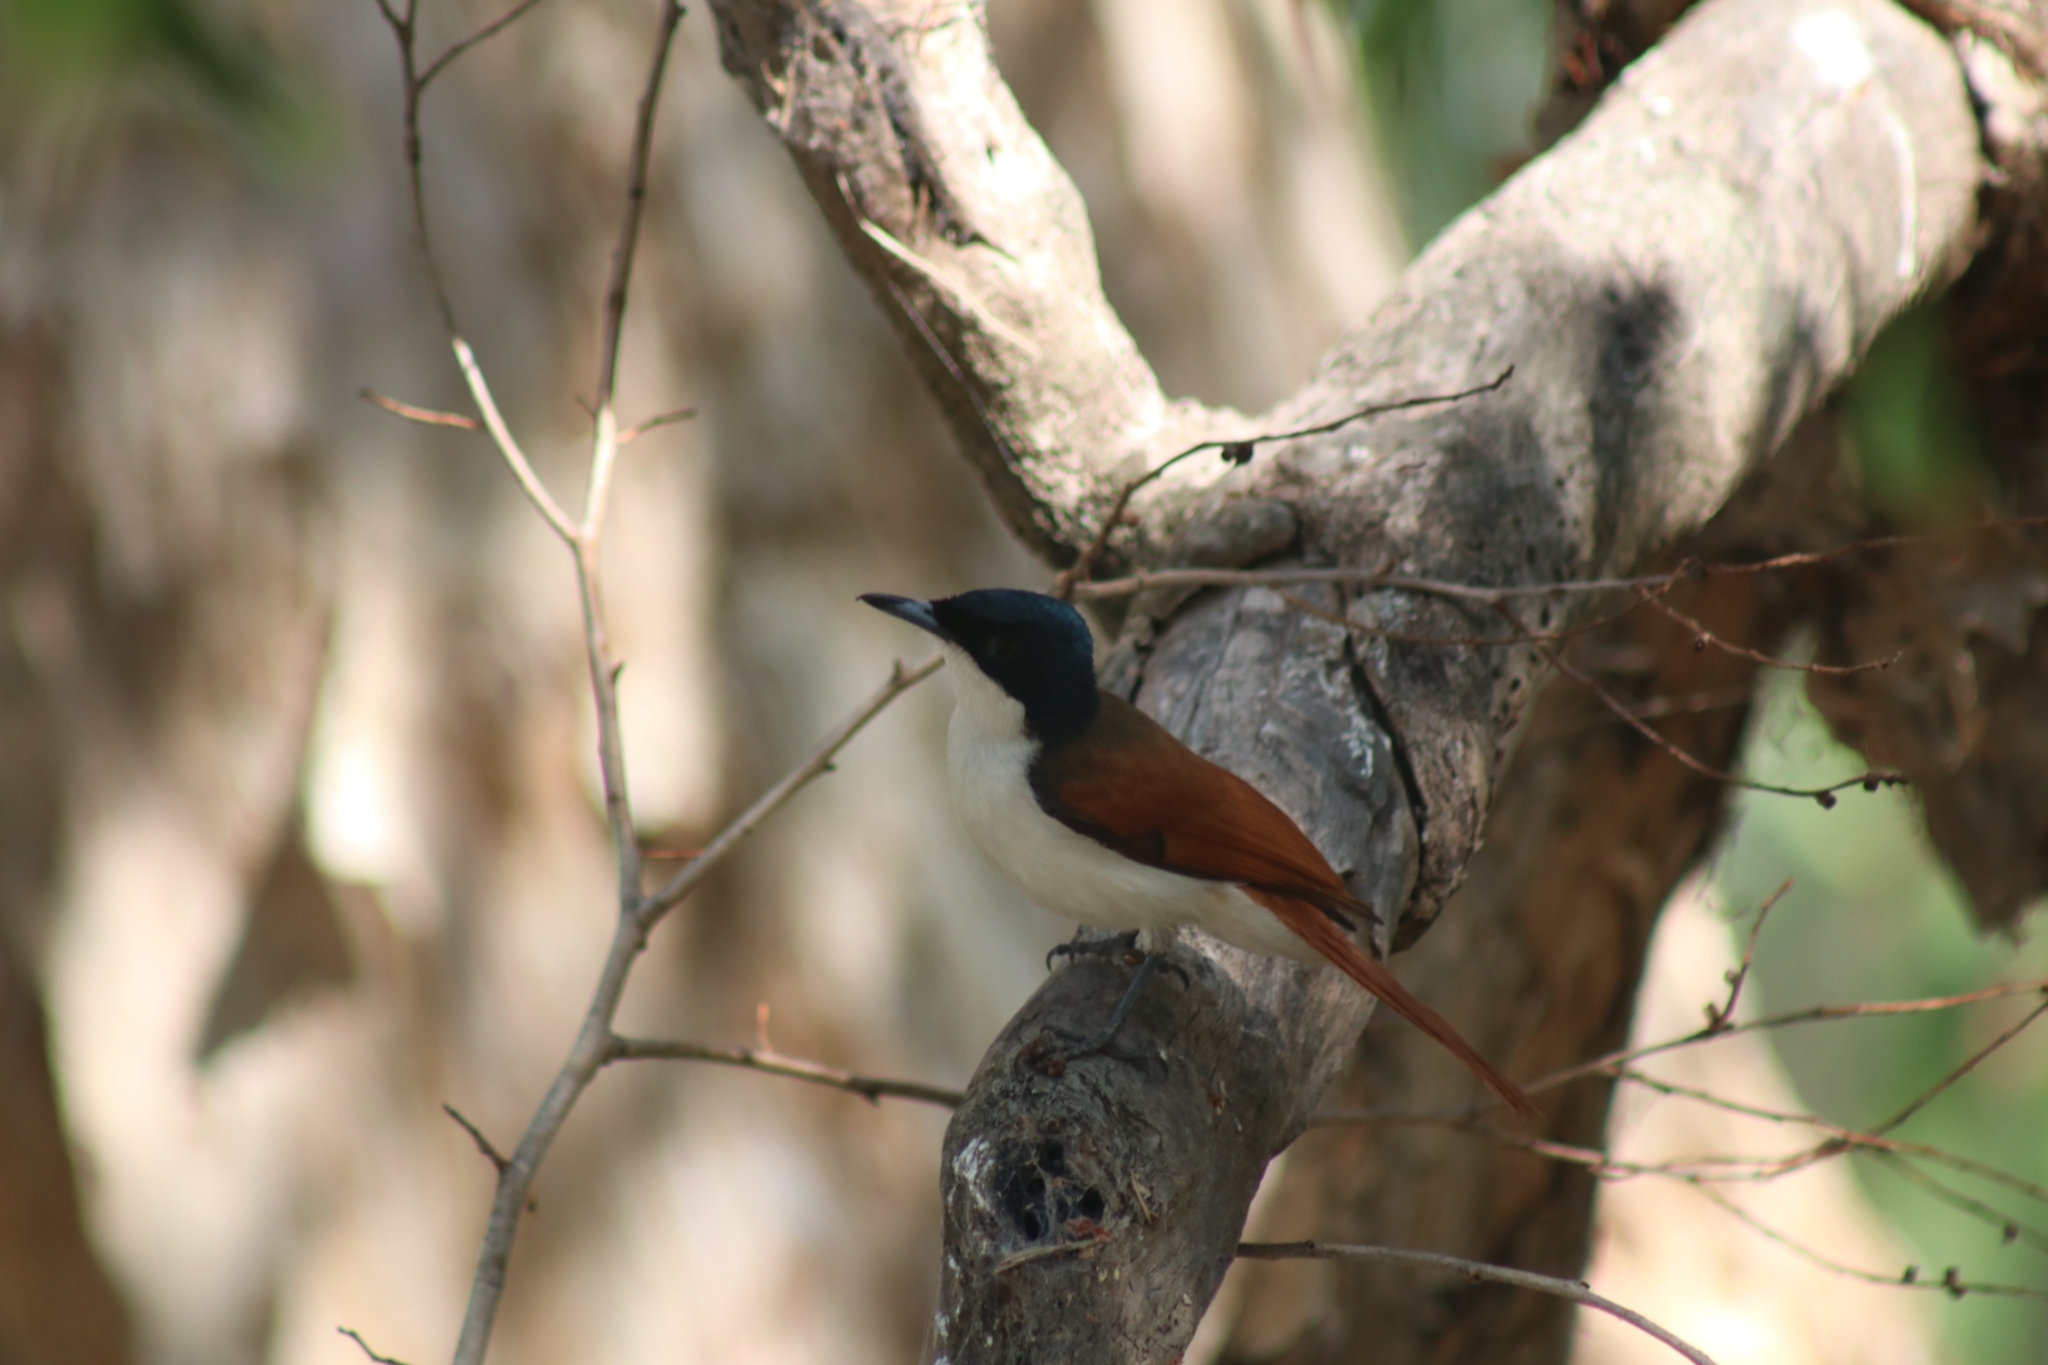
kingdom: Animalia
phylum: Chordata
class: Aves
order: Passeriformes
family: Monarchidae
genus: Myiagra
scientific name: Myiagra alecto
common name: Shining flycatcher
